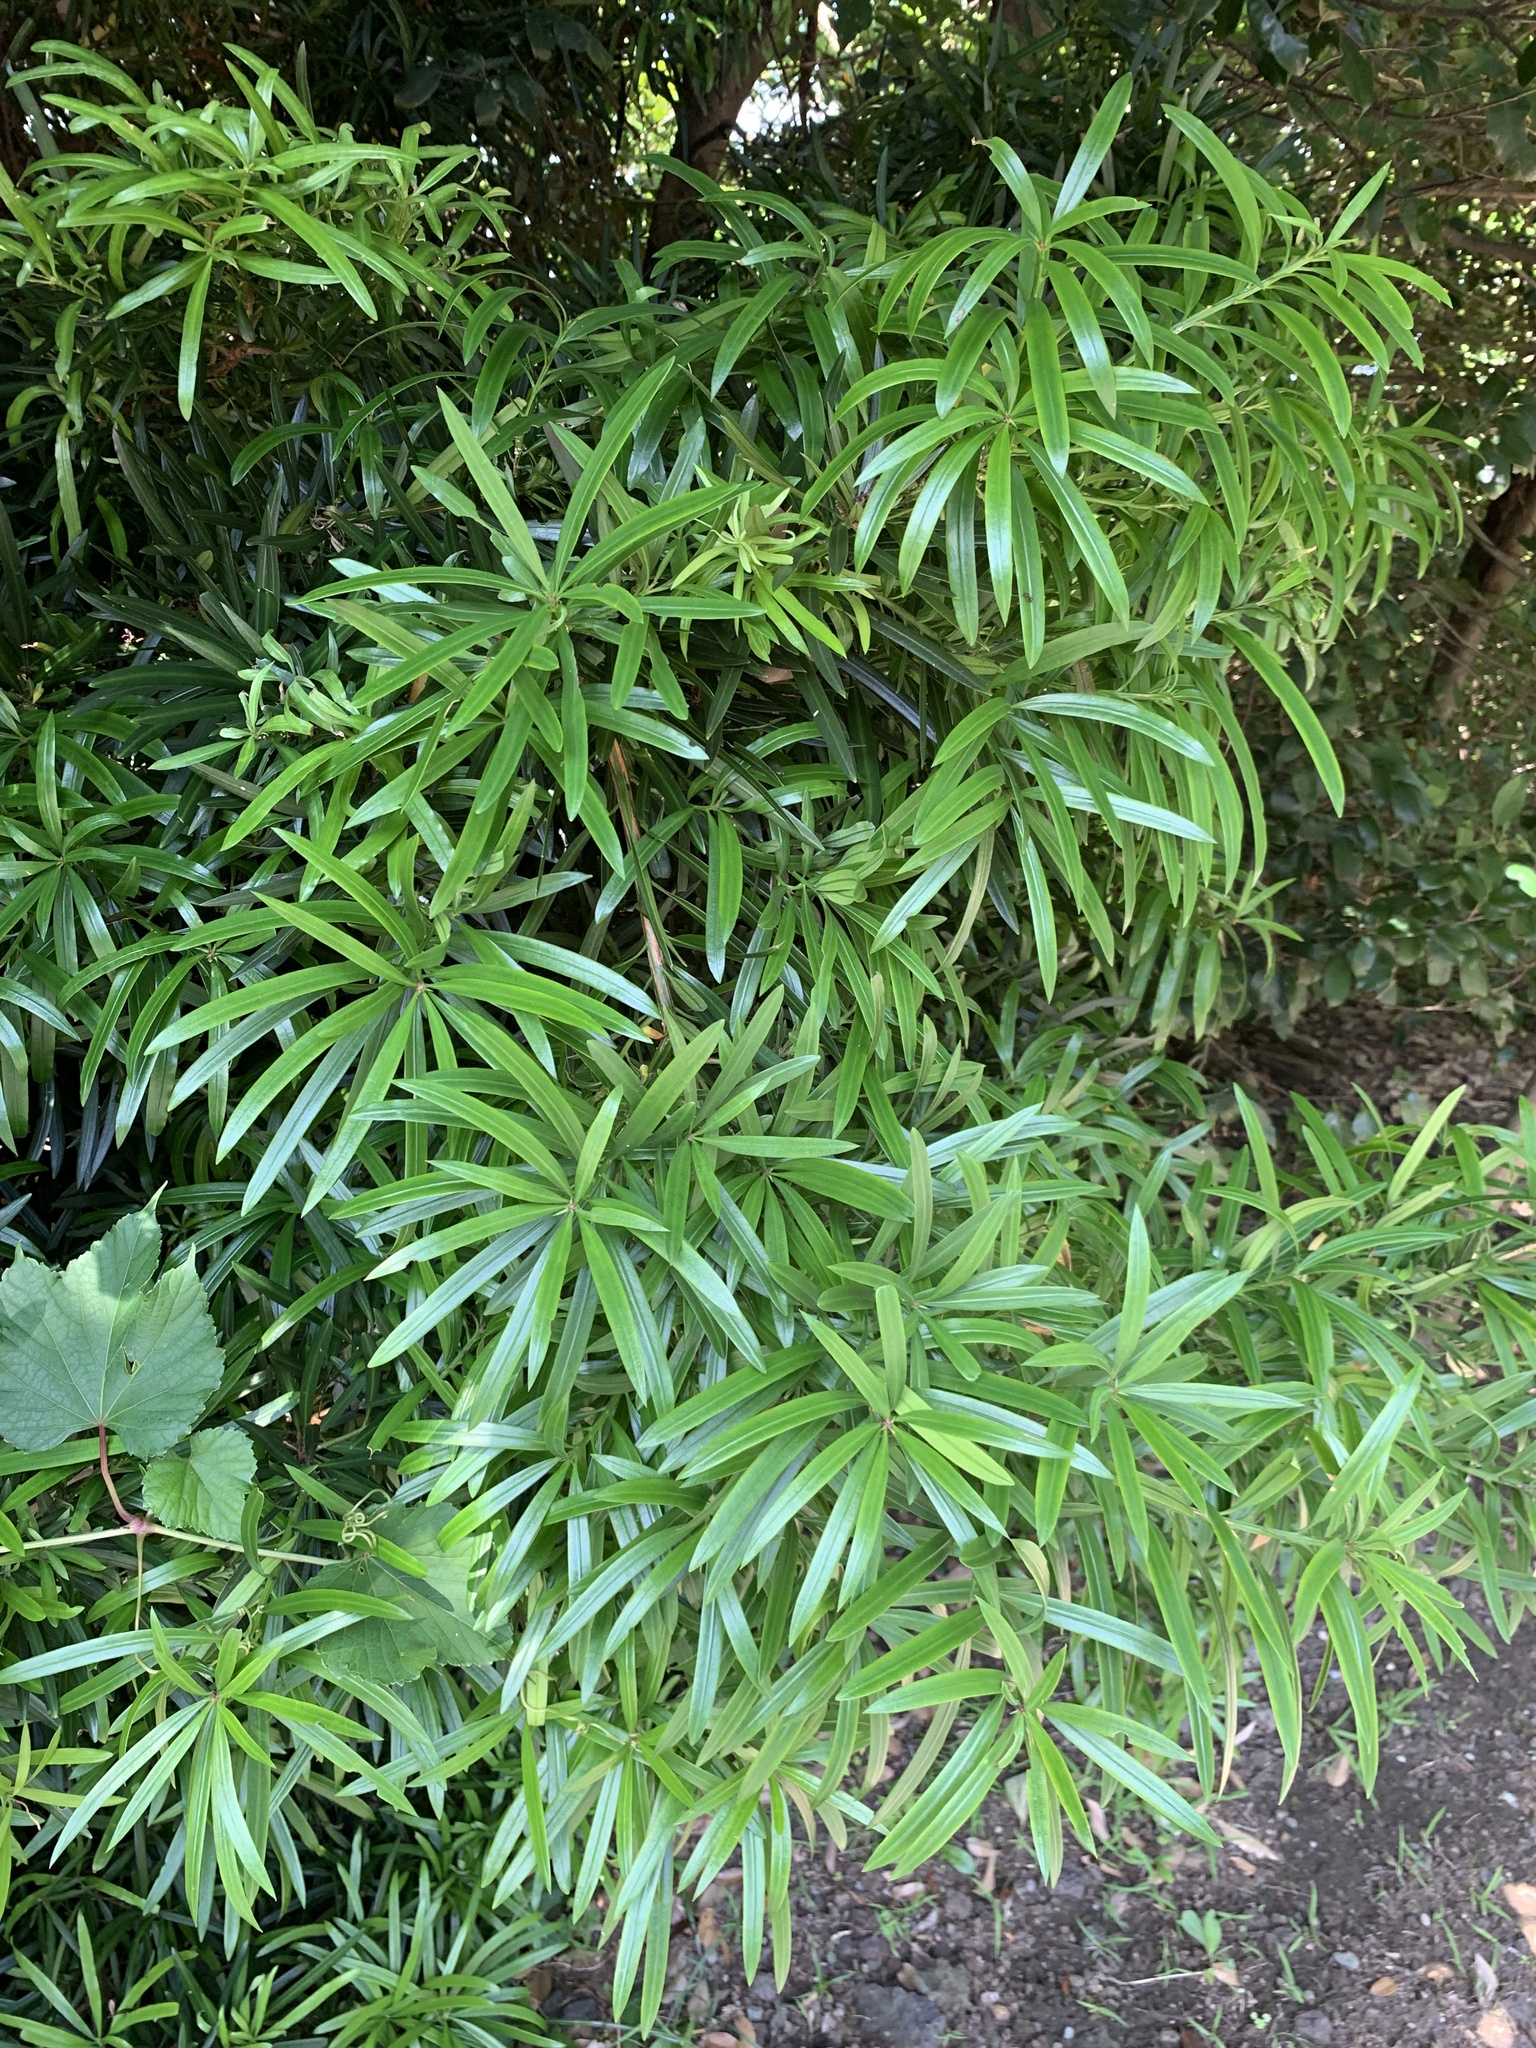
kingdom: Plantae
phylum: Tracheophyta
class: Pinopsida
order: Pinales
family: Podocarpaceae
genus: Podocarpus
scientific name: Podocarpus macrophyllus
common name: Japanese yew
